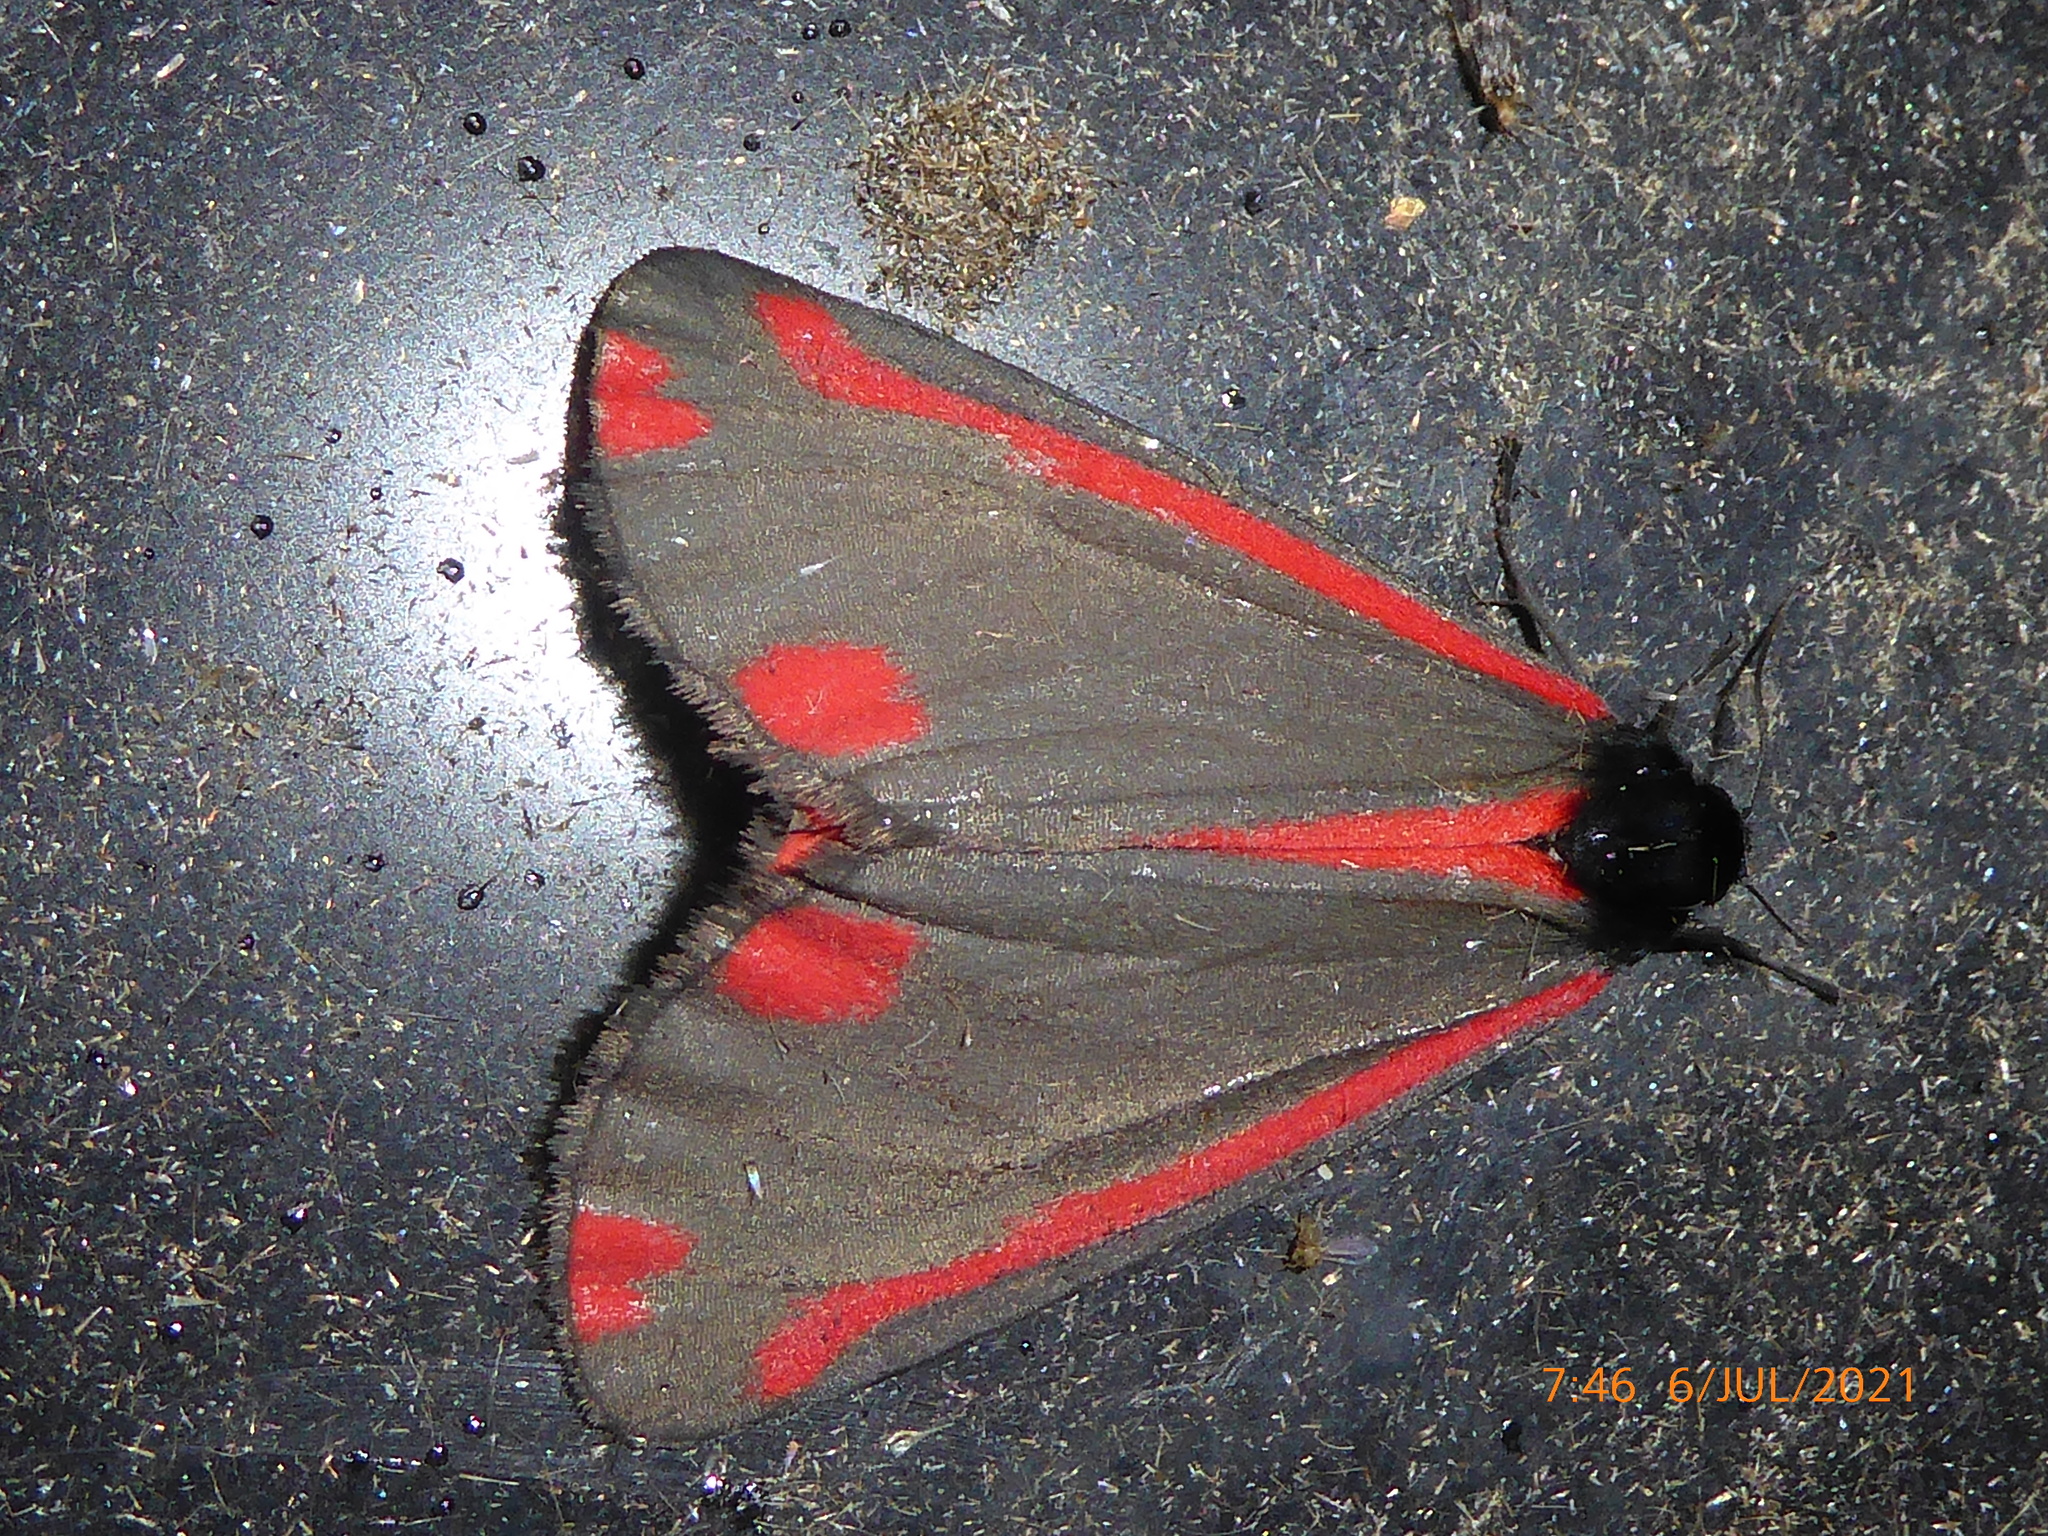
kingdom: Animalia
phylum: Arthropoda
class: Insecta
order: Lepidoptera
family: Erebidae
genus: Tyria
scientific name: Tyria jacobaeae
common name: Cinnabar
